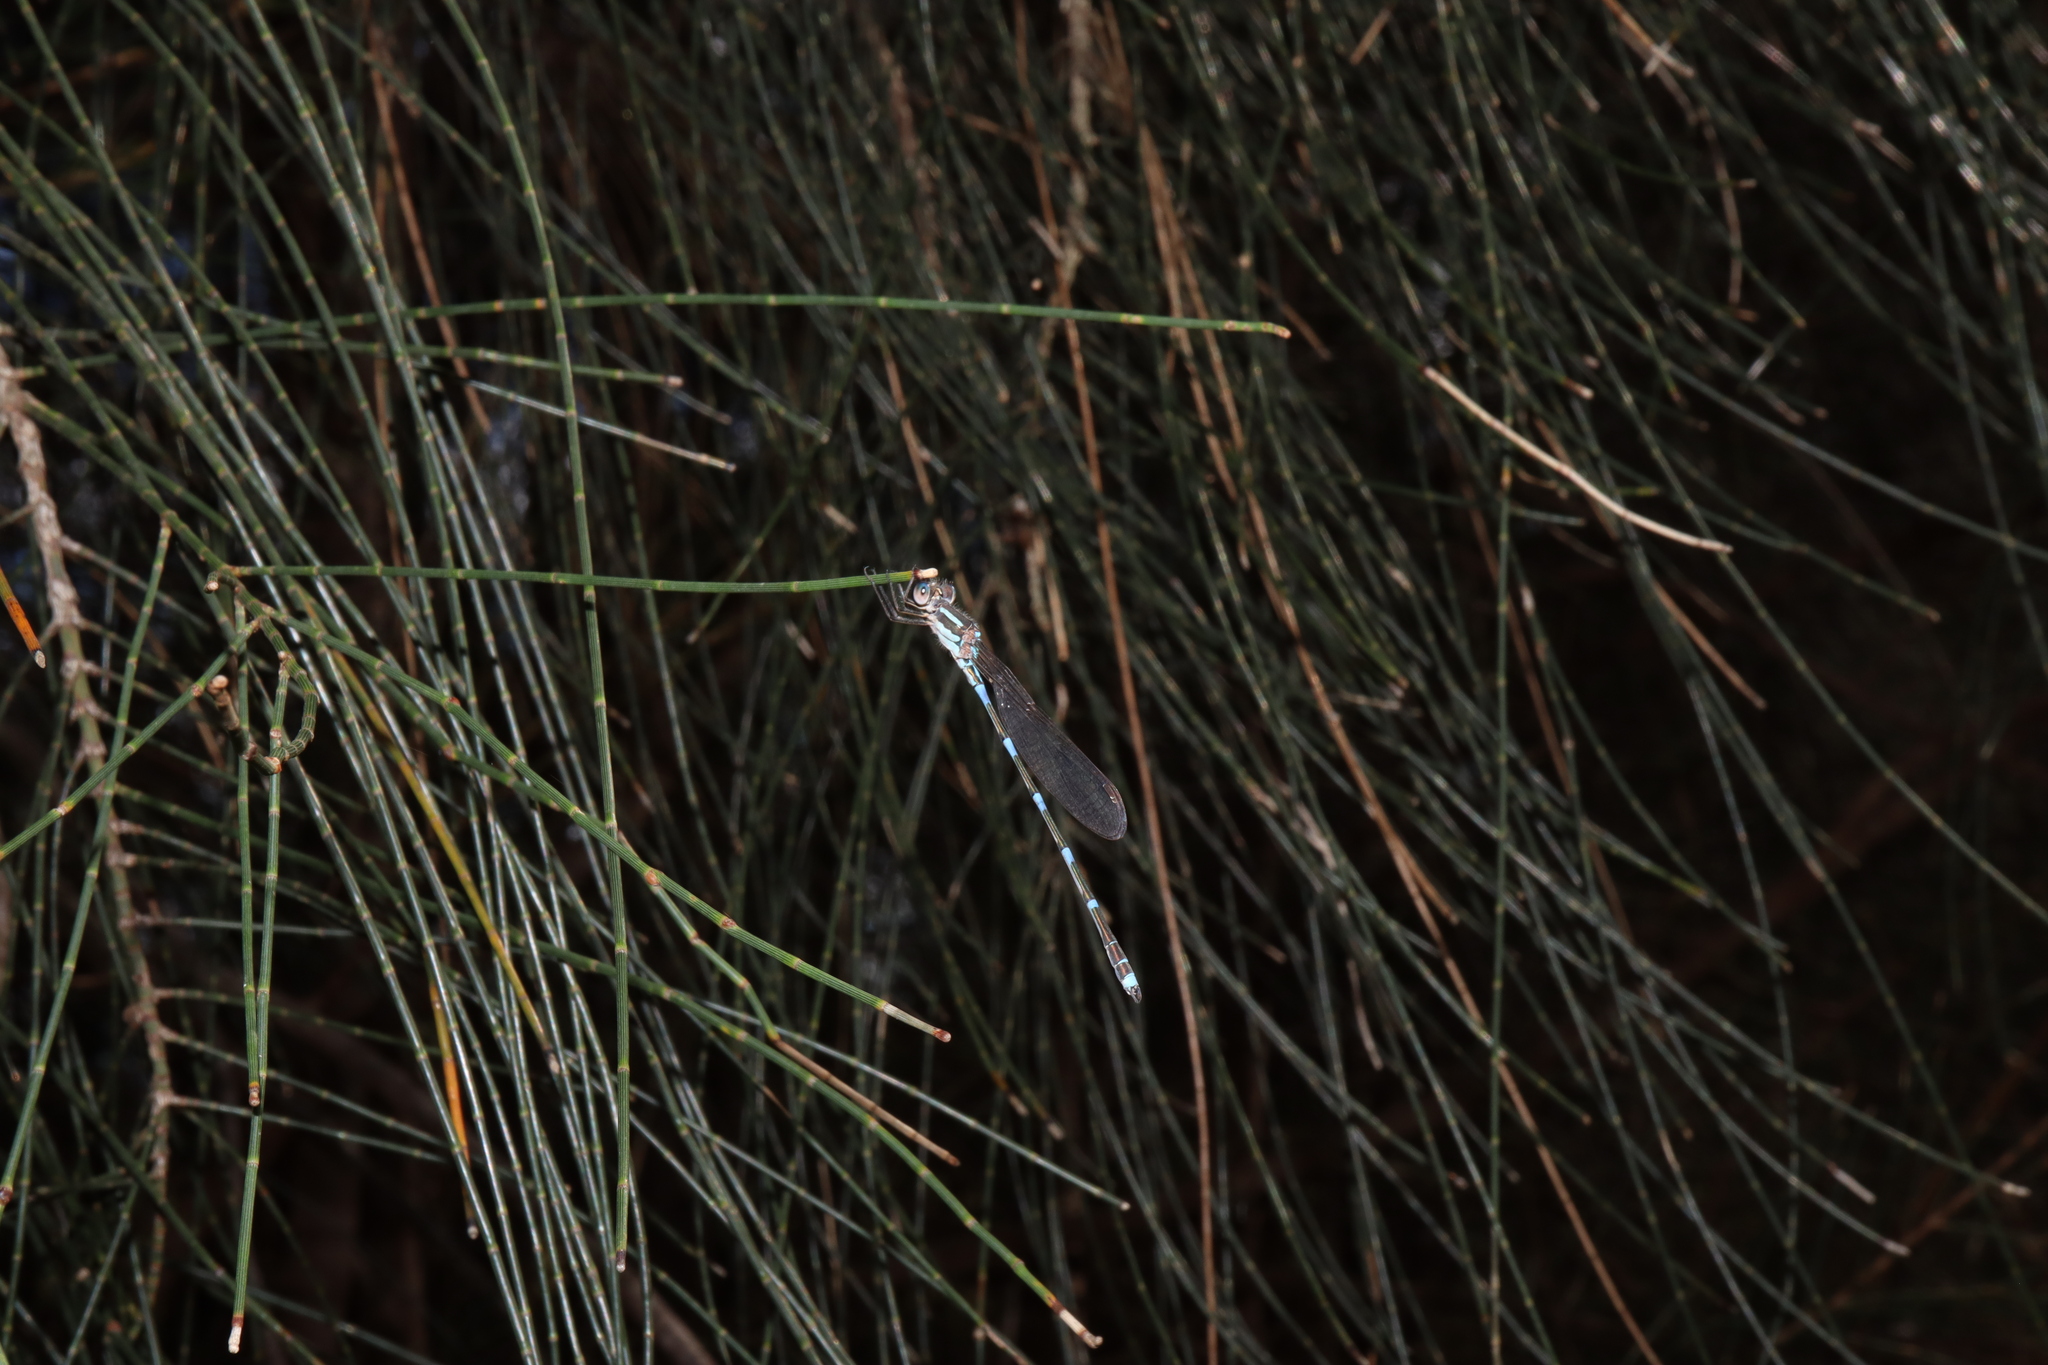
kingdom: Animalia
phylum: Arthropoda
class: Insecta
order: Odonata
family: Lestidae
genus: Austrolestes
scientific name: Austrolestes leda
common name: Wandering ringtail
